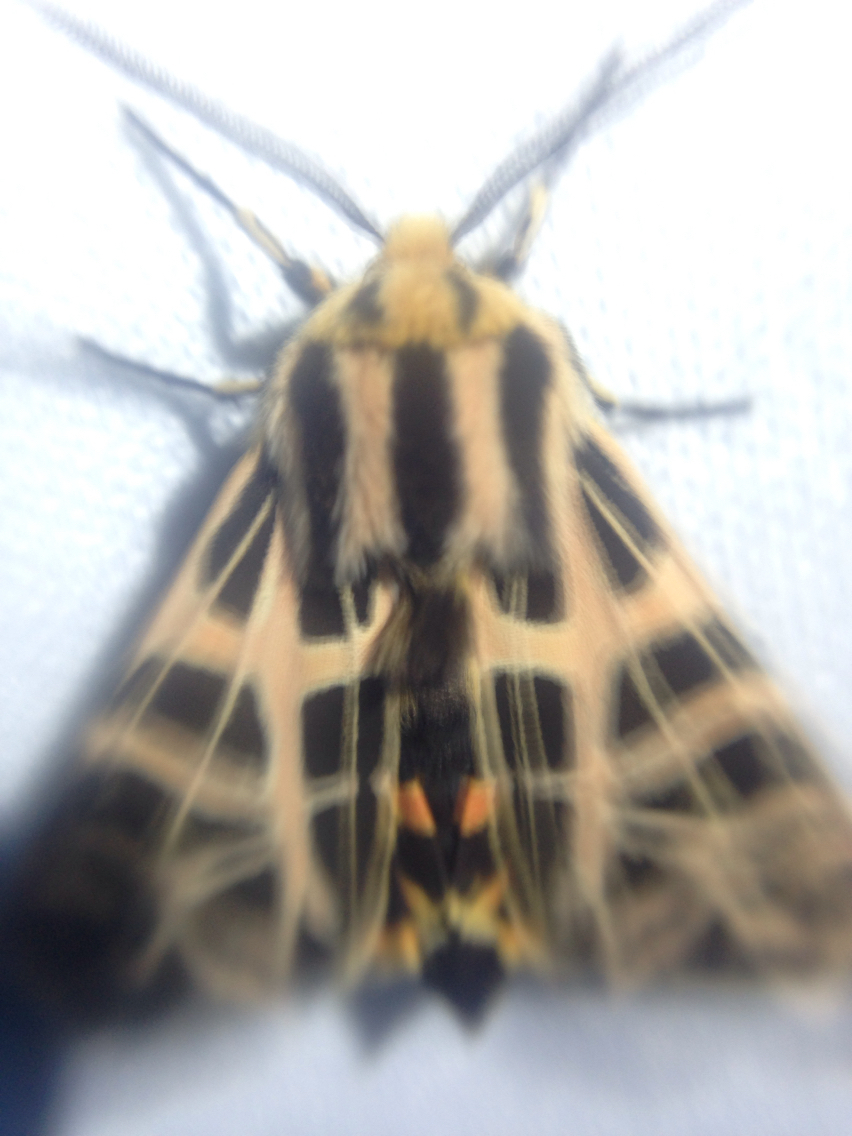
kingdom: Animalia
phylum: Arthropoda
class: Insecta
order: Lepidoptera
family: Erebidae
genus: Apantesis
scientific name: Apantesis
